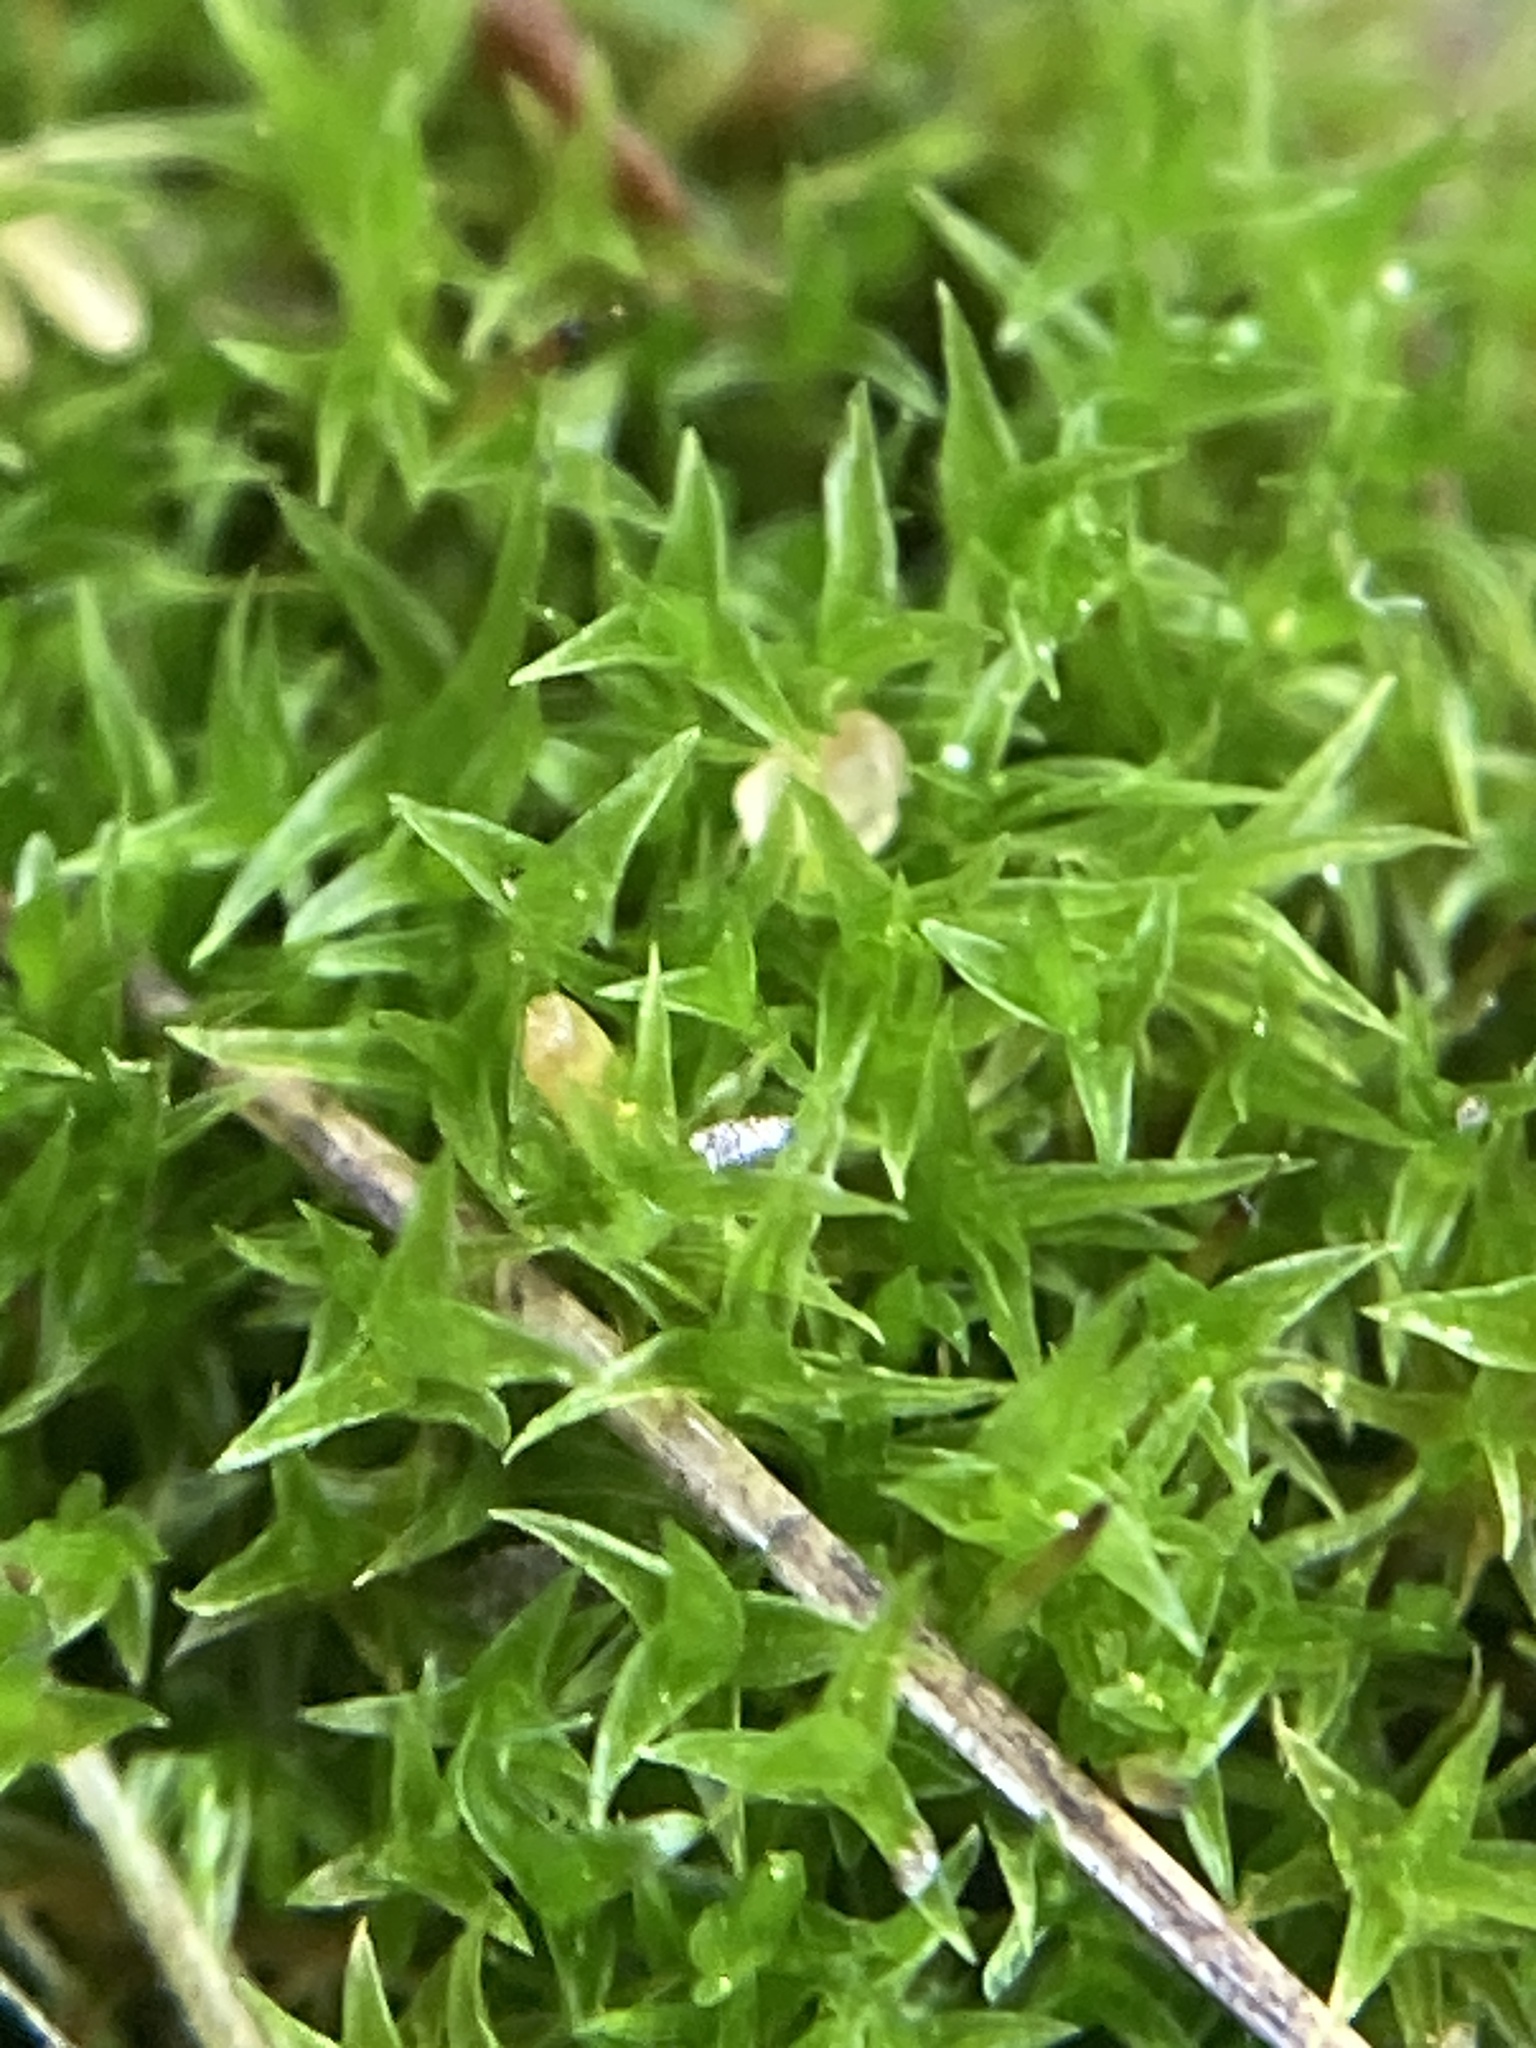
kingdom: Plantae
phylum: Bryophyta
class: Bryopsida
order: Dicranales
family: Ditrichaceae
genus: Ceratodon
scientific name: Ceratodon purpureus
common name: Redshank
